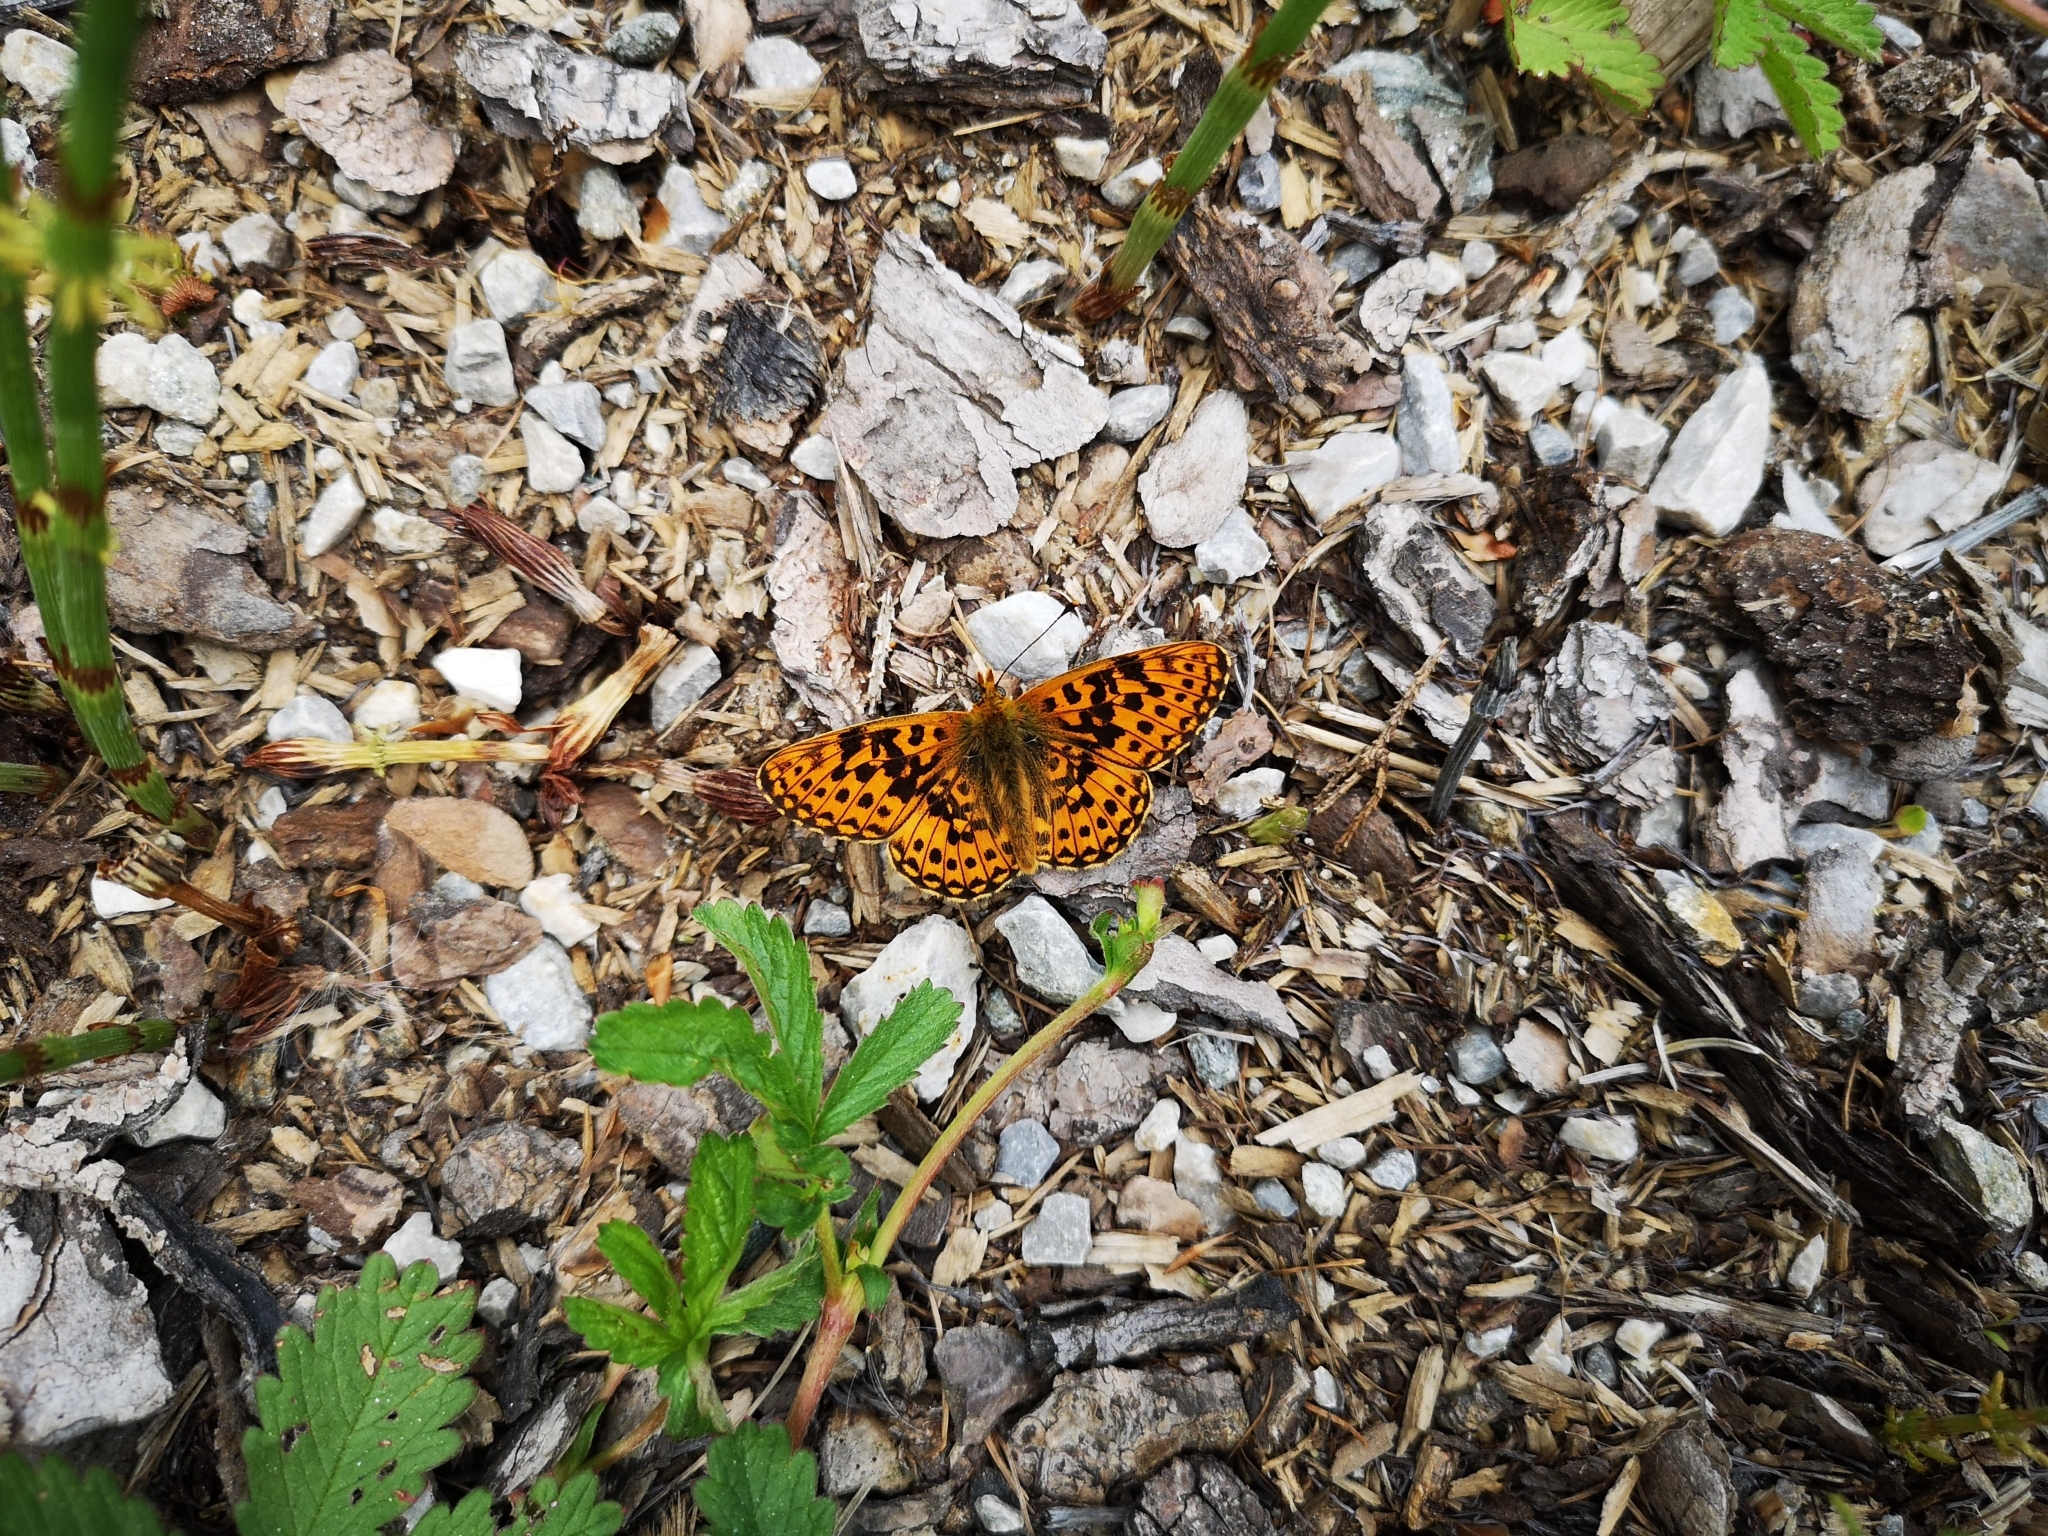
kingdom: Animalia
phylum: Arthropoda
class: Insecta
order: Lepidoptera
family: Nymphalidae
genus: Clossiana
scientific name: Clossiana euphrosyne
